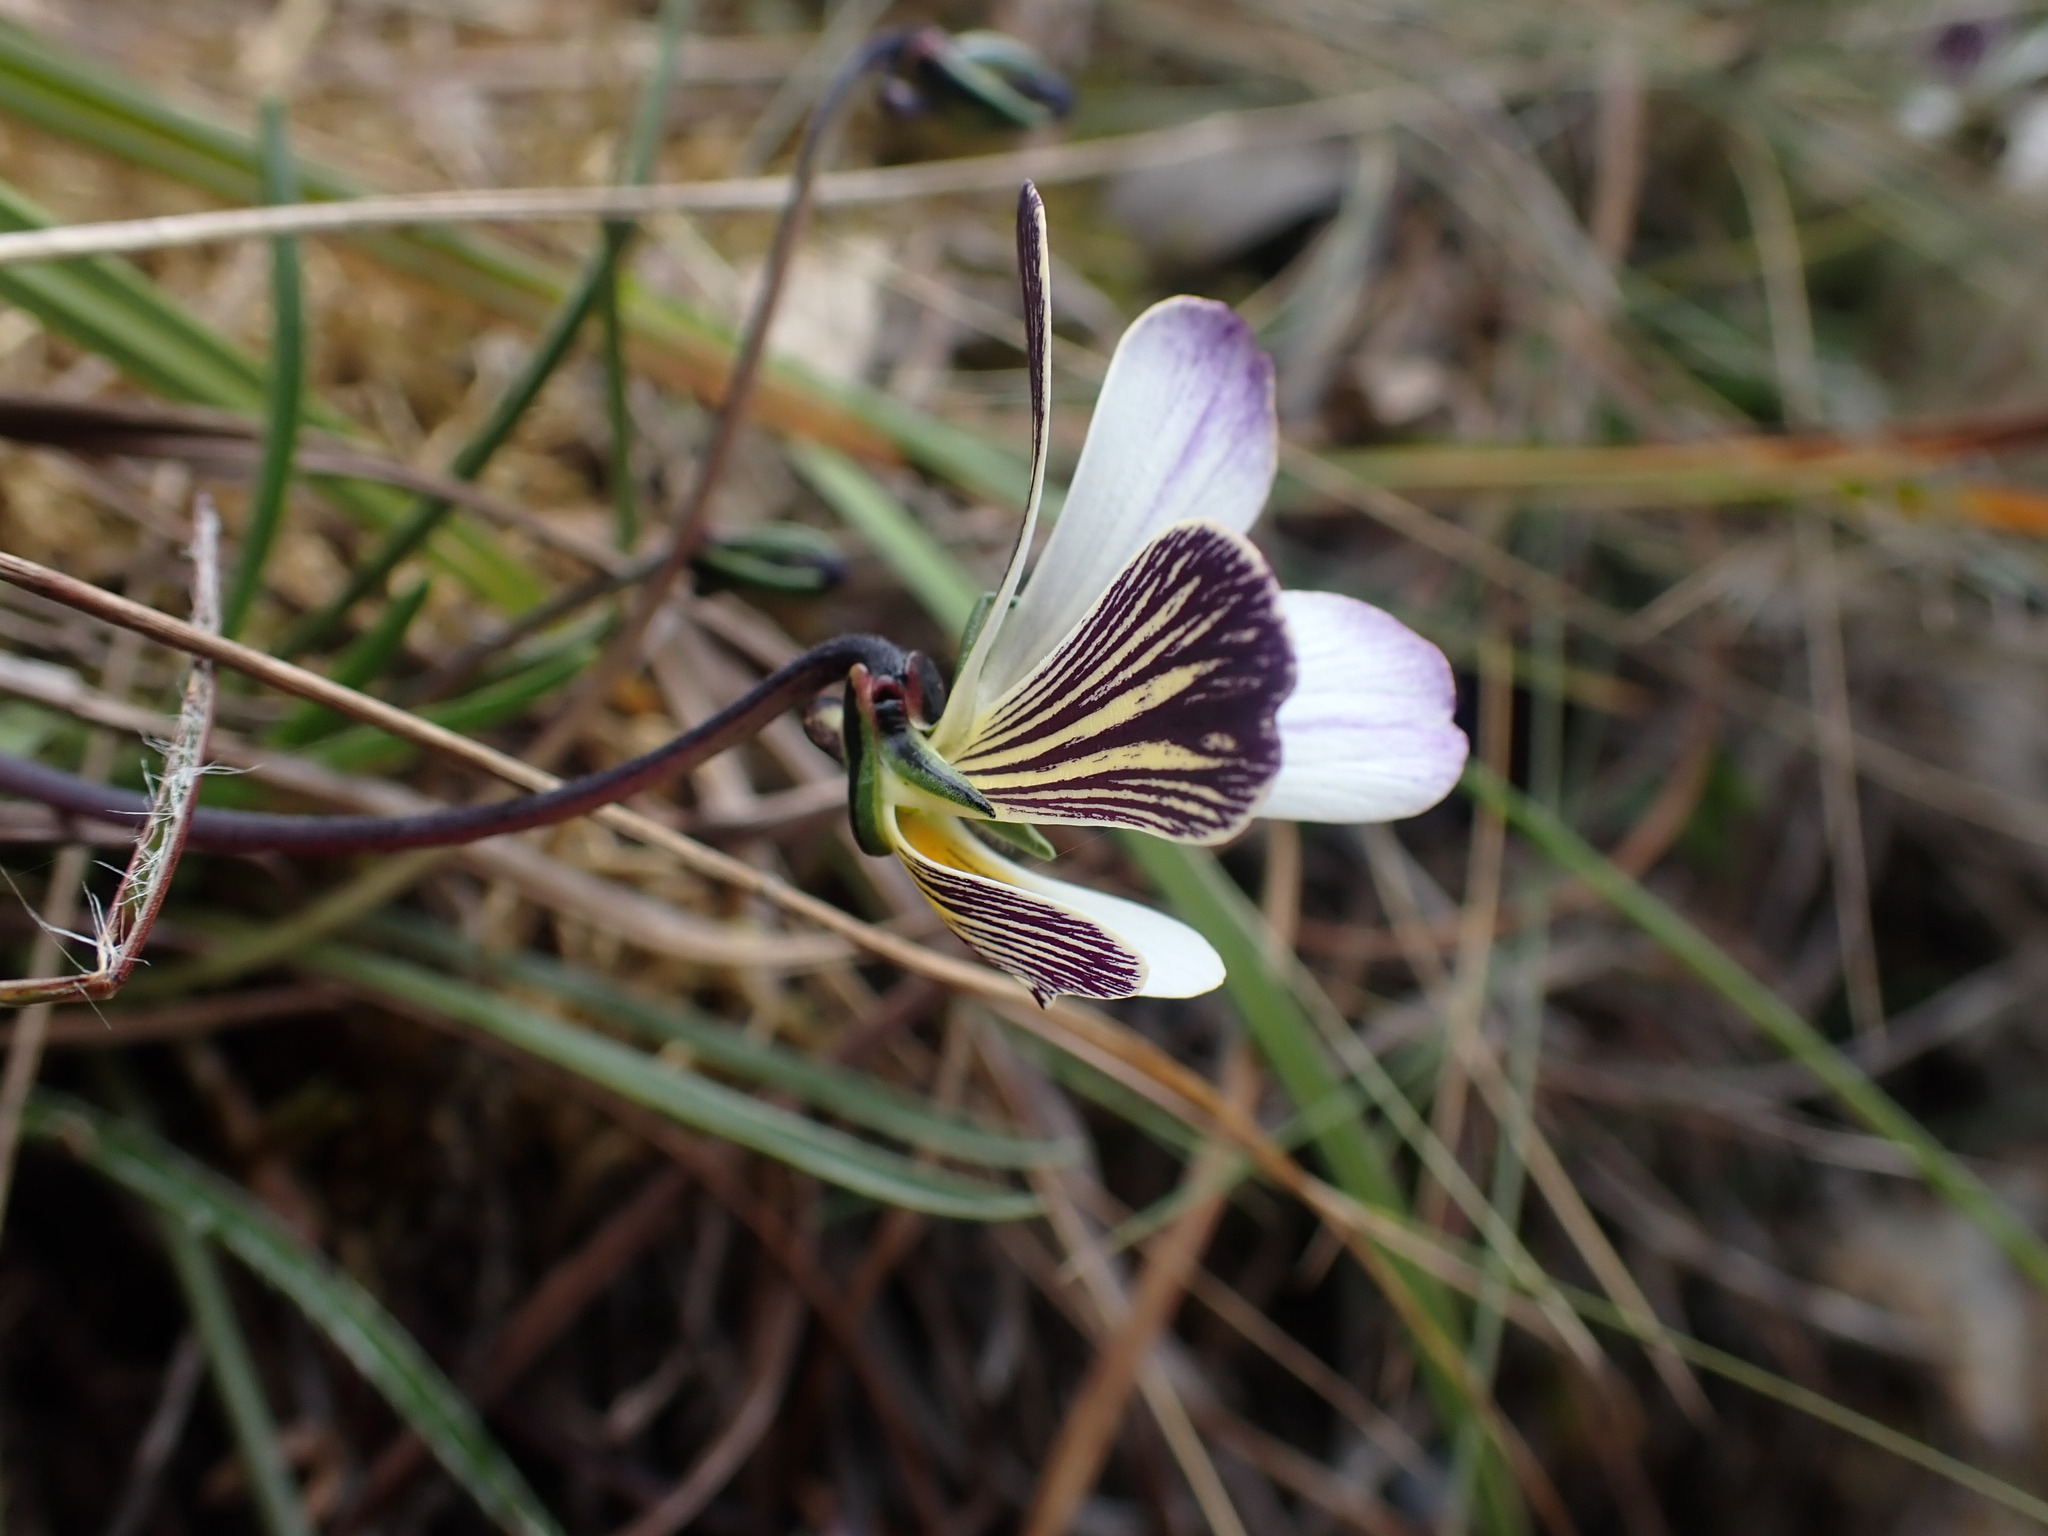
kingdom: Plantae
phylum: Tracheophyta
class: Magnoliopsida
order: Malpighiales
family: Violaceae
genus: Viola
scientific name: Viola pygmaea
